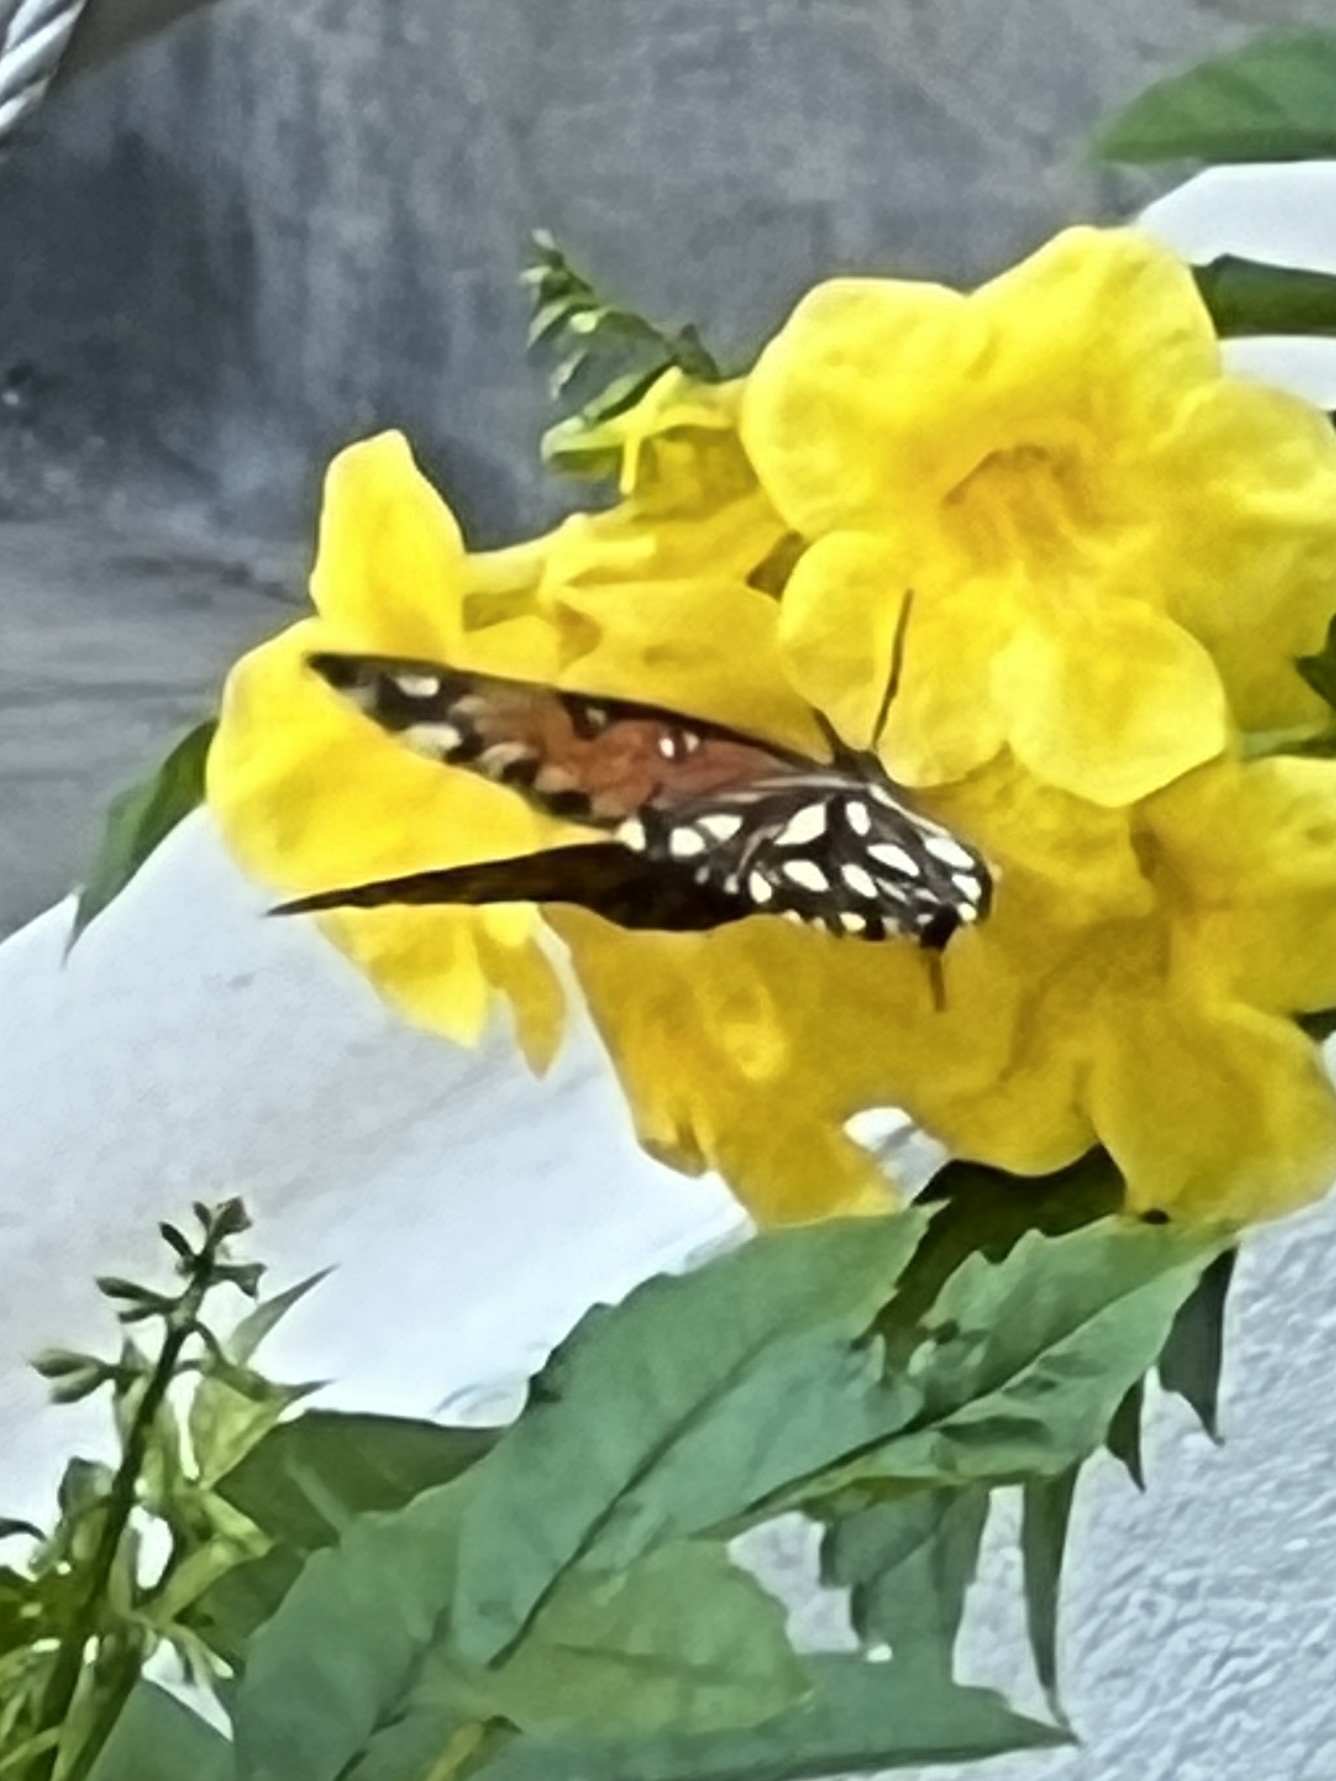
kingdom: Animalia
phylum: Arthropoda
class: Insecta
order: Lepidoptera
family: Nymphalidae
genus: Dione
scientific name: Dione vanillae
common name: Gulf fritillary
